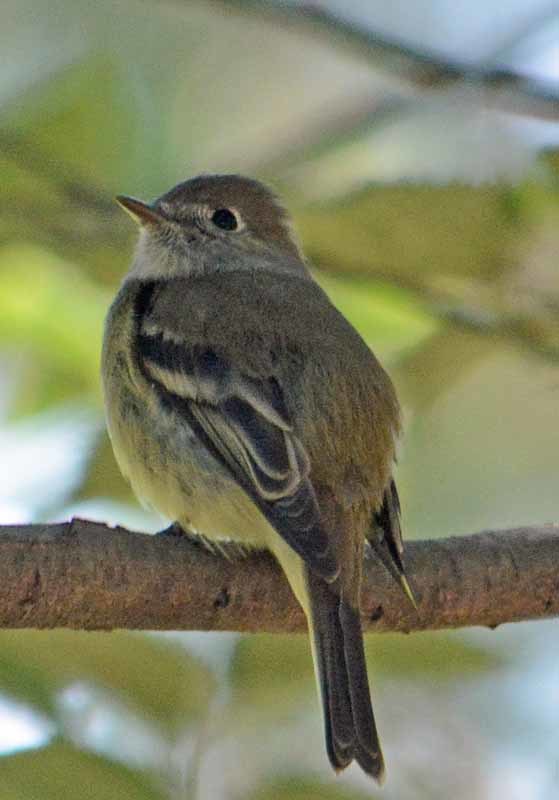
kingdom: Animalia
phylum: Chordata
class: Aves
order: Passeriformes
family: Tyrannidae
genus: Empidonax
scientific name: Empidonax hammondii
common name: Hammond's flycatcher
